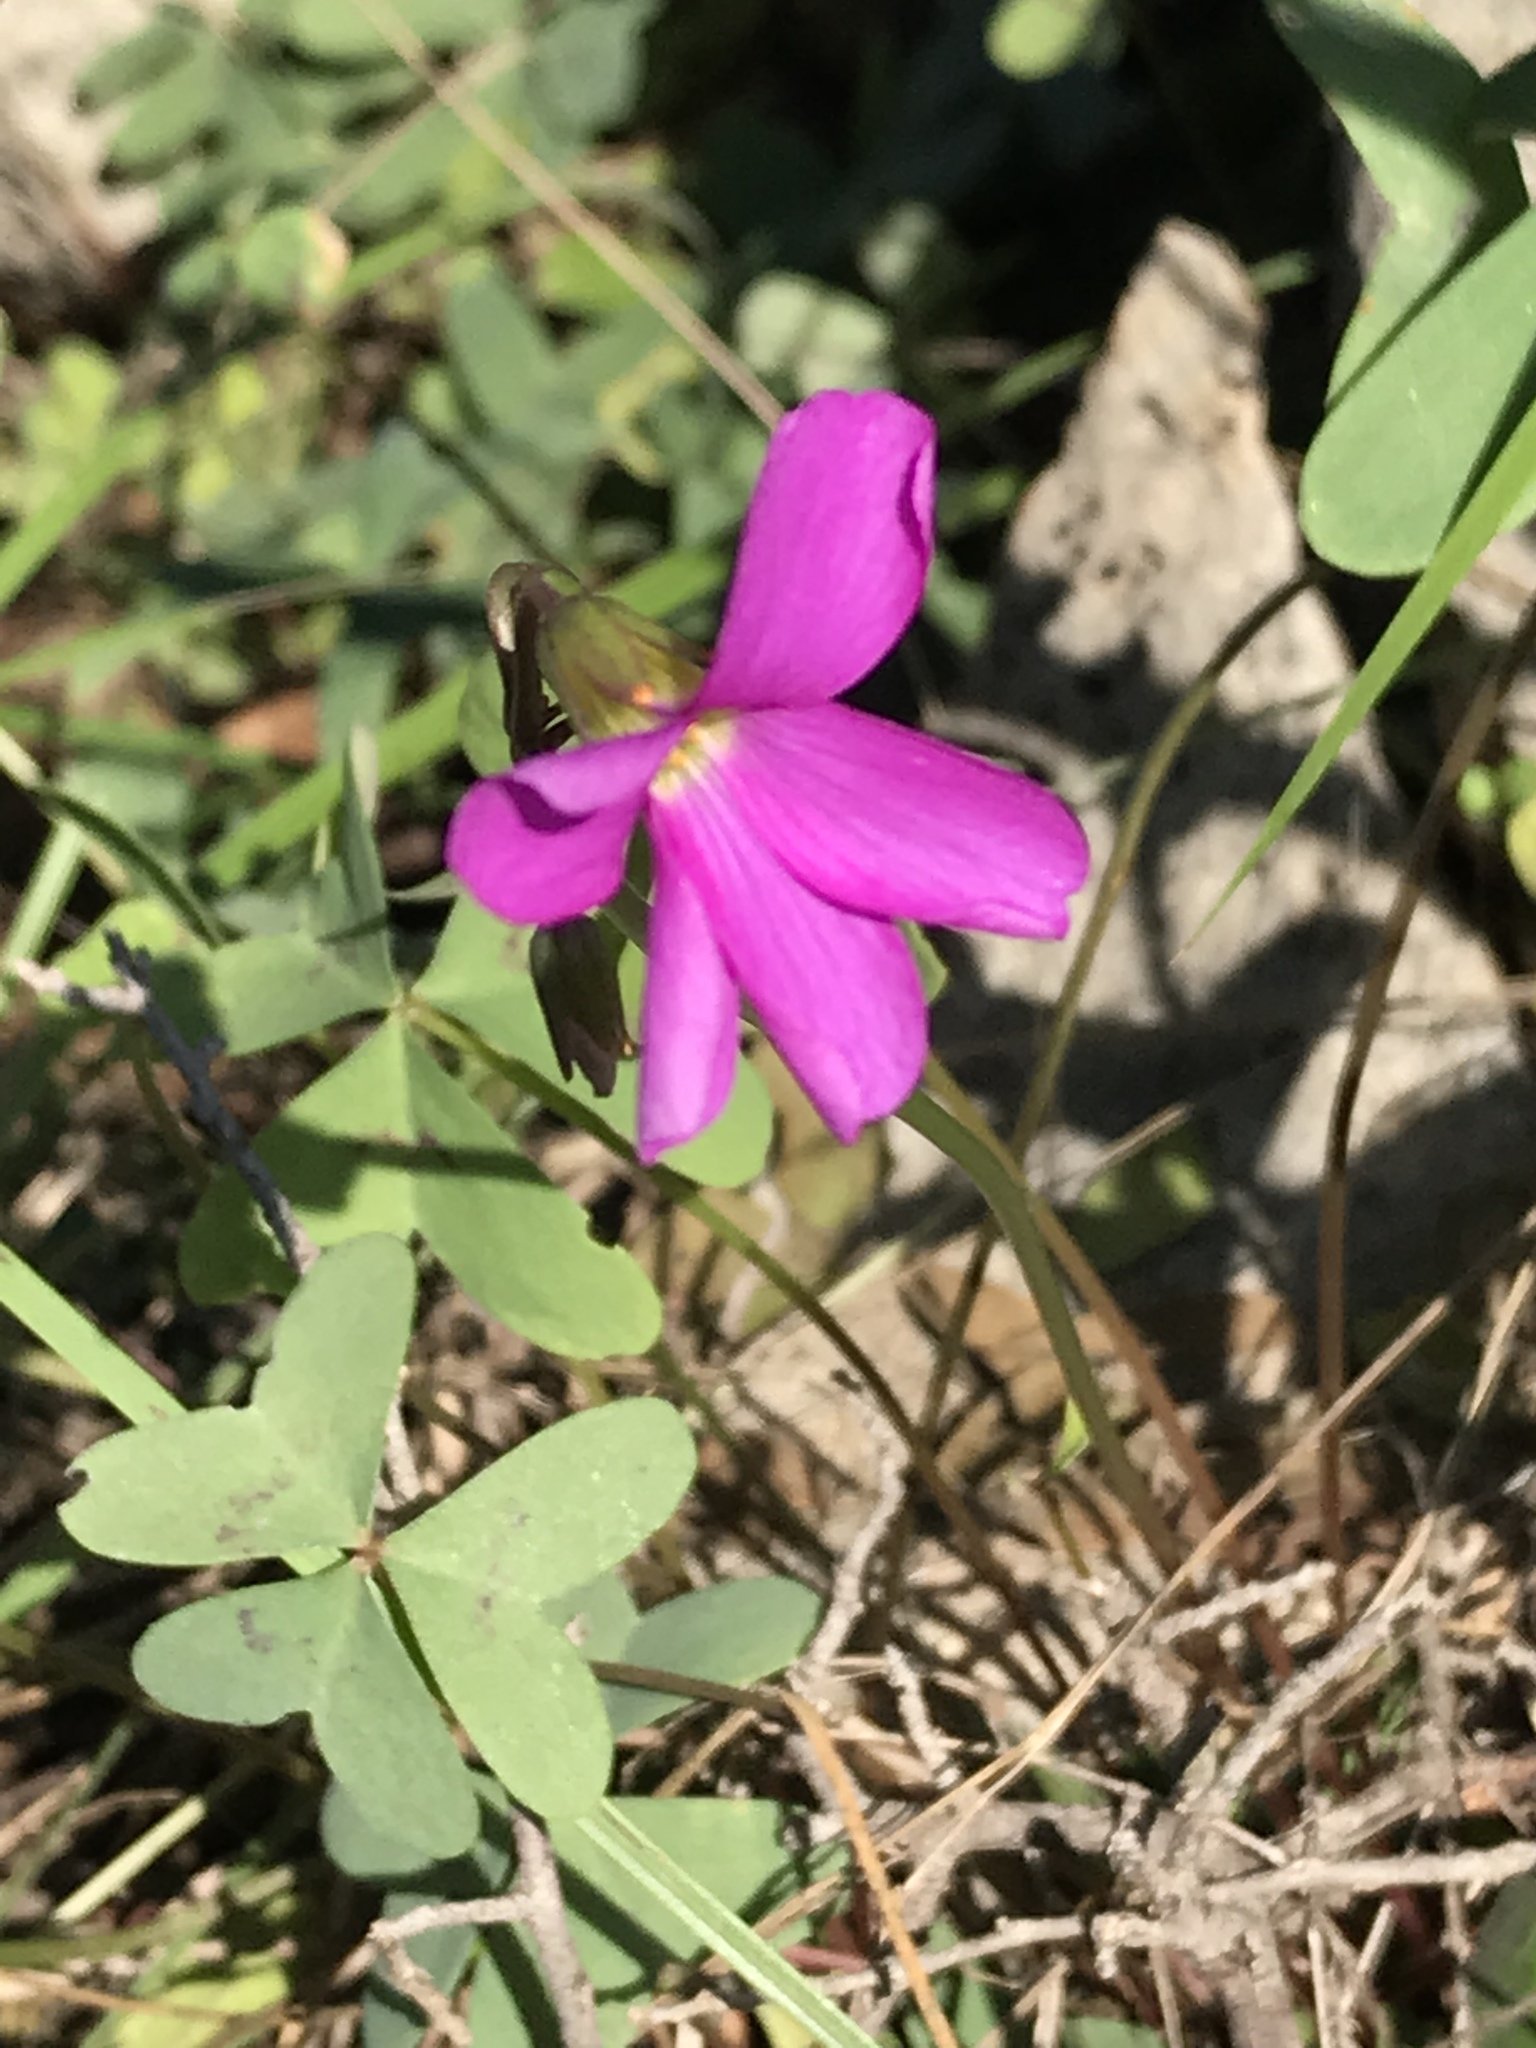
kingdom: Plantae
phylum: Tracheophyta
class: Magnoliopsida
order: Oxalidales
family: Oxalidaceae
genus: Oxalis
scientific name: Oxalis drummondii
